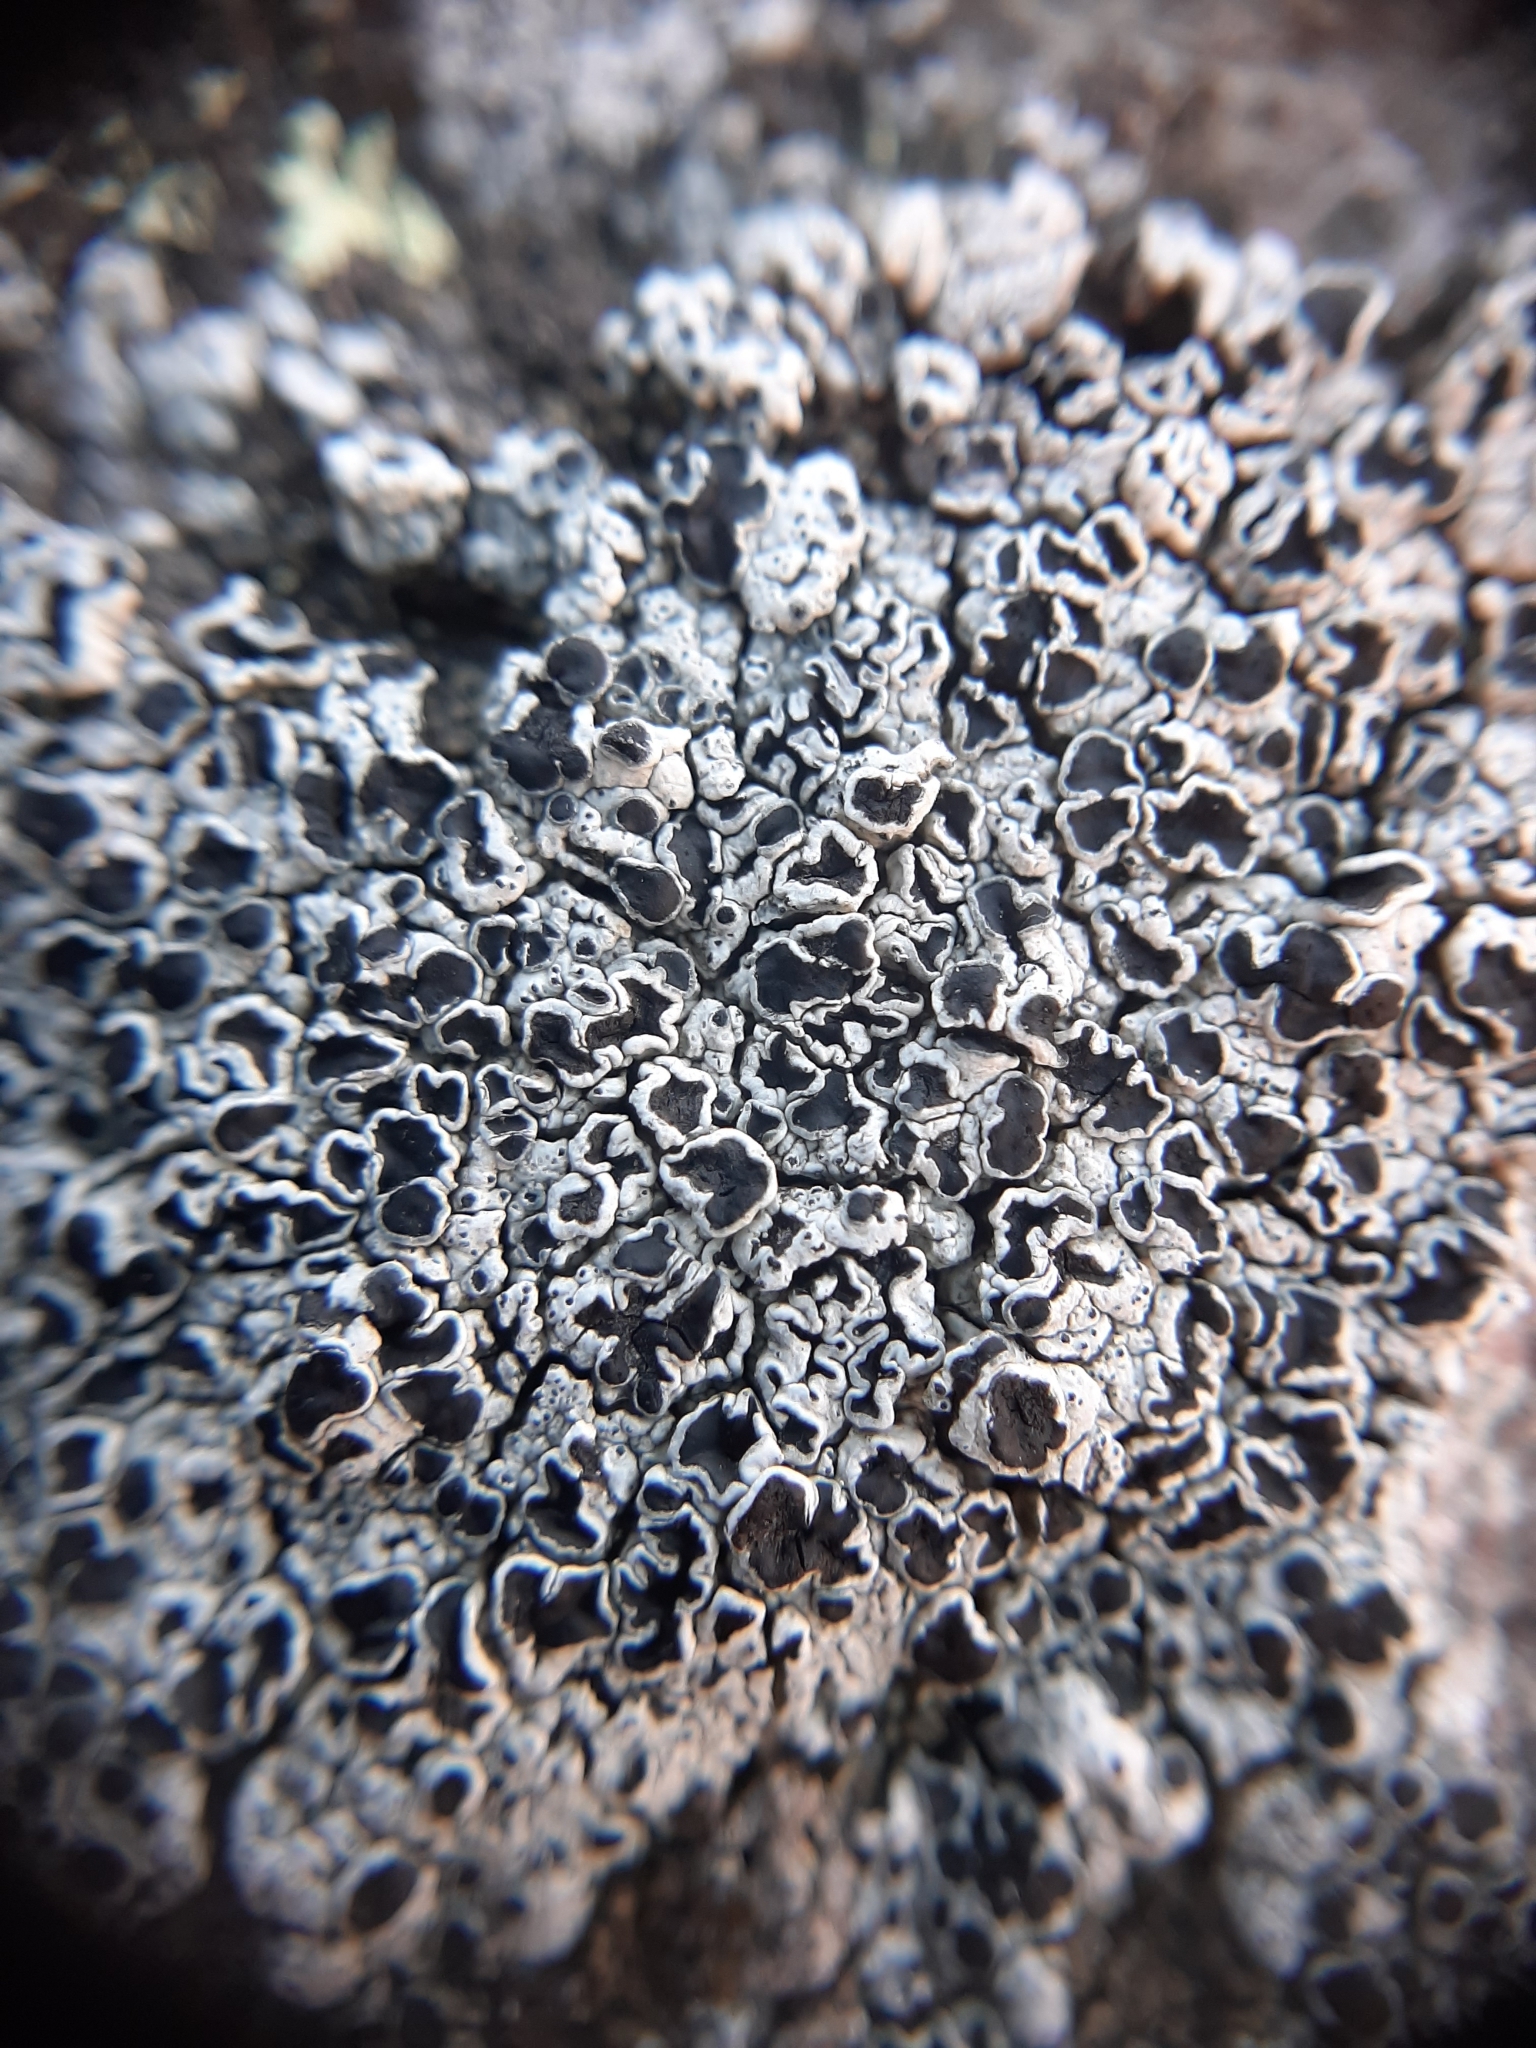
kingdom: Fungi
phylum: Ascomycota
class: Lecanoromycetes
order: Lecanorales
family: Tephromelataceae
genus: Tephromela
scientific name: Tephromela atra
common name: Black shields
